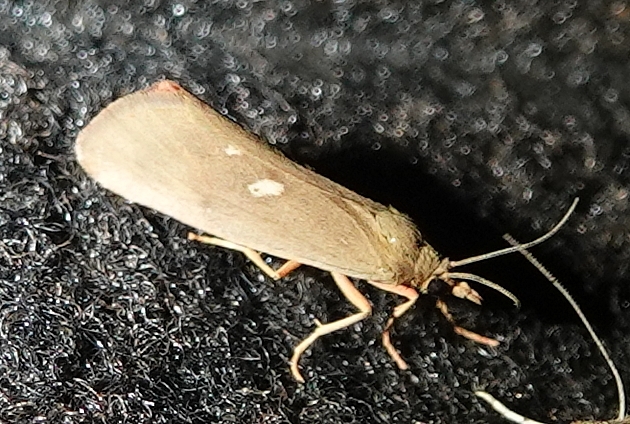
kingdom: Animalia
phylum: Arthropoda
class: Insecta
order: Lepidoptera
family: Erebidae
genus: Virbia
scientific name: Virbia fragilis
